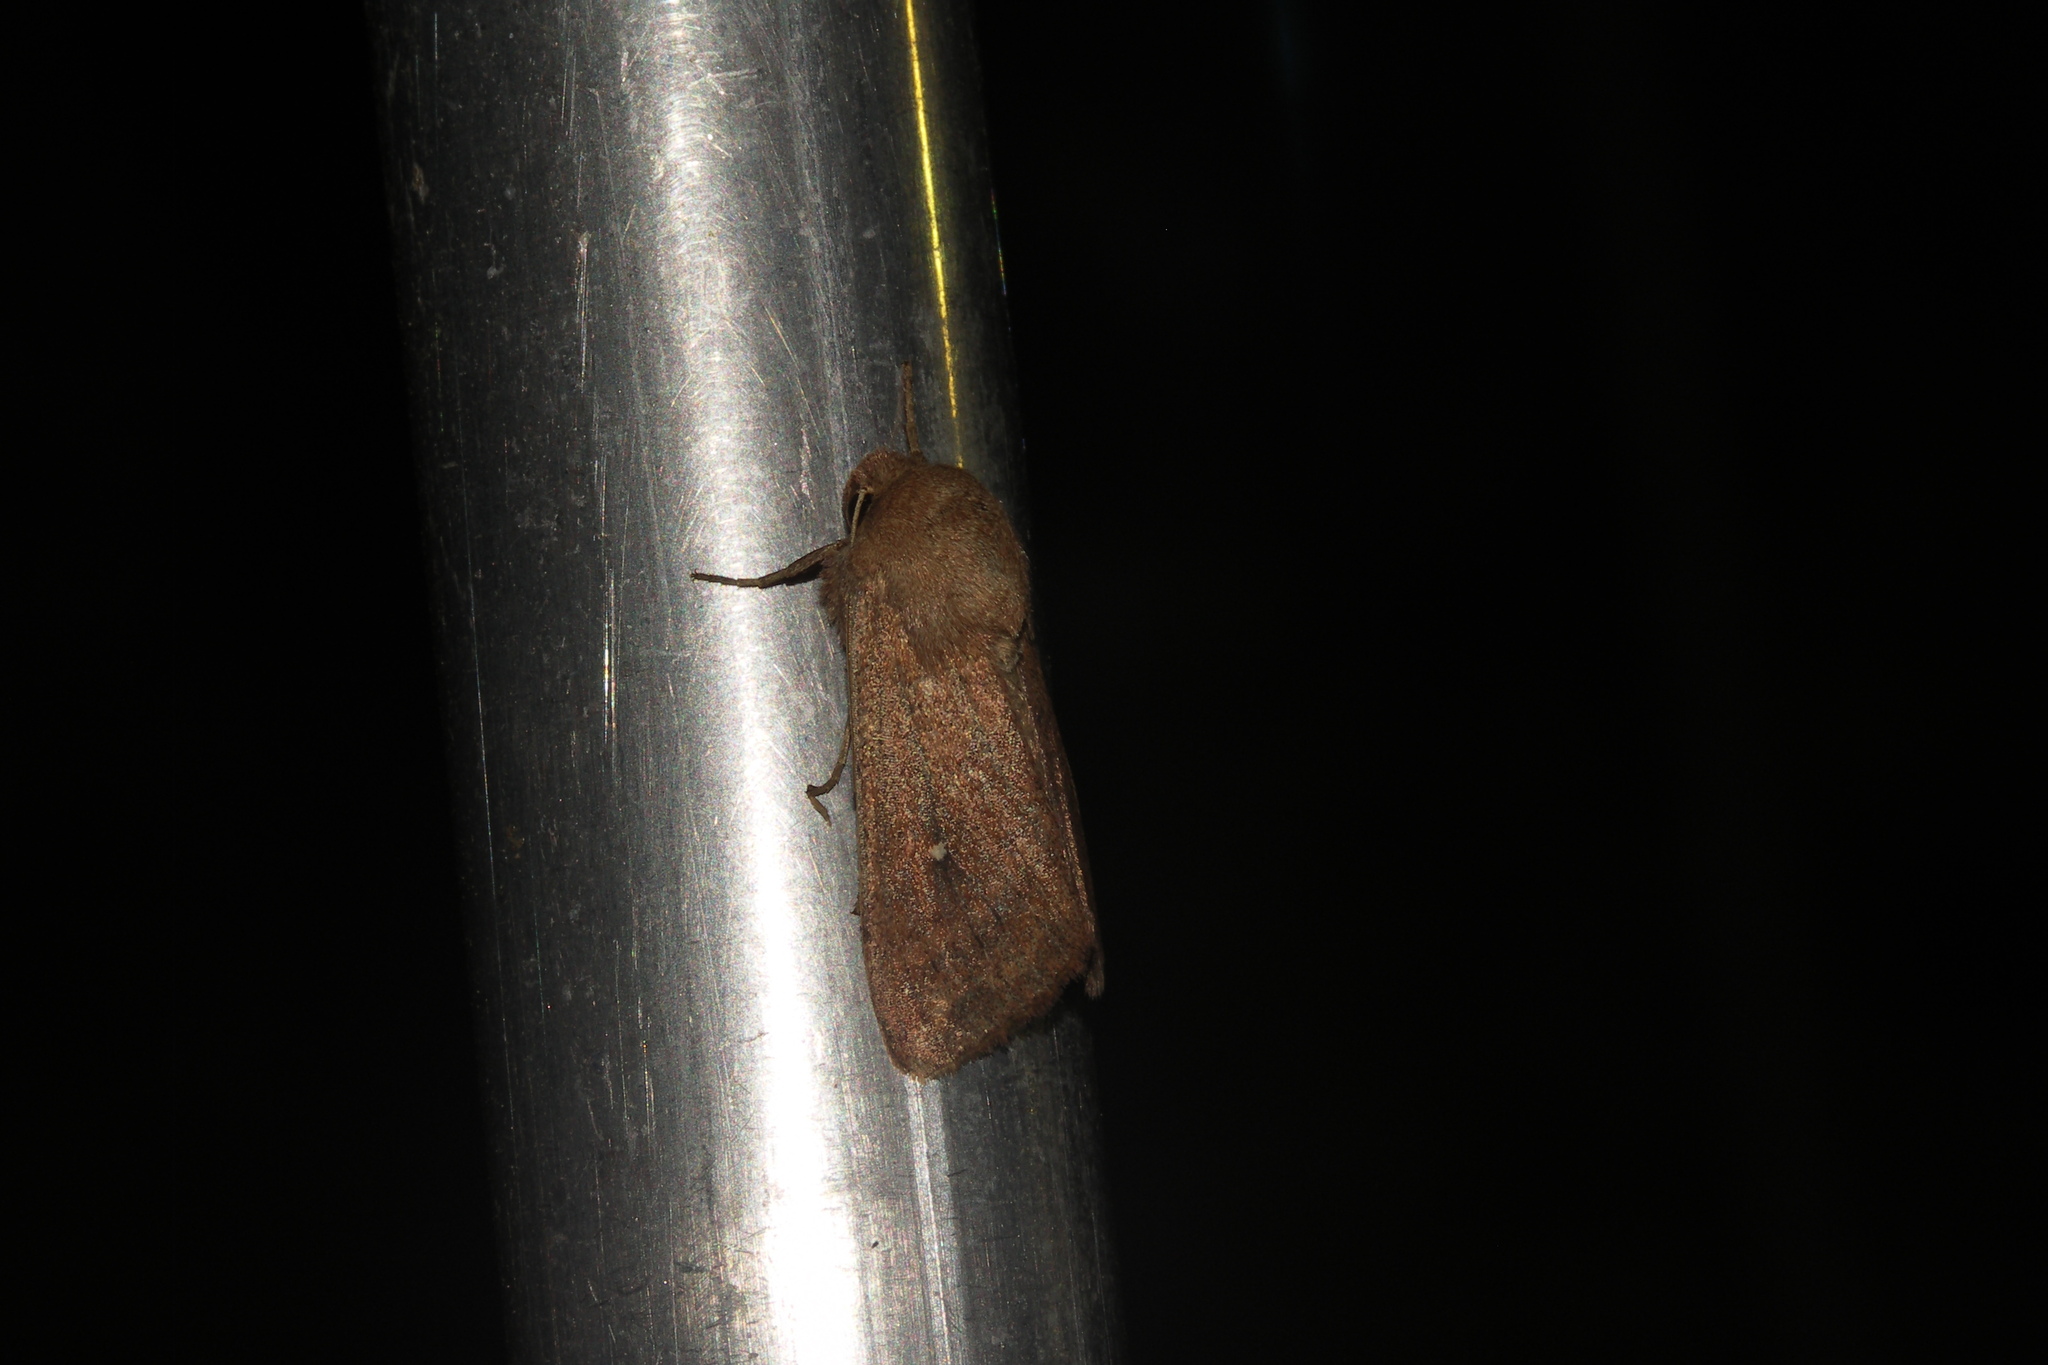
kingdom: Animalia
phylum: Arthropoda
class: Insecta
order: Lepidoptera
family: Noctuidae
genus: Mythimna
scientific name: Mythimna albipuncta
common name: White-point
